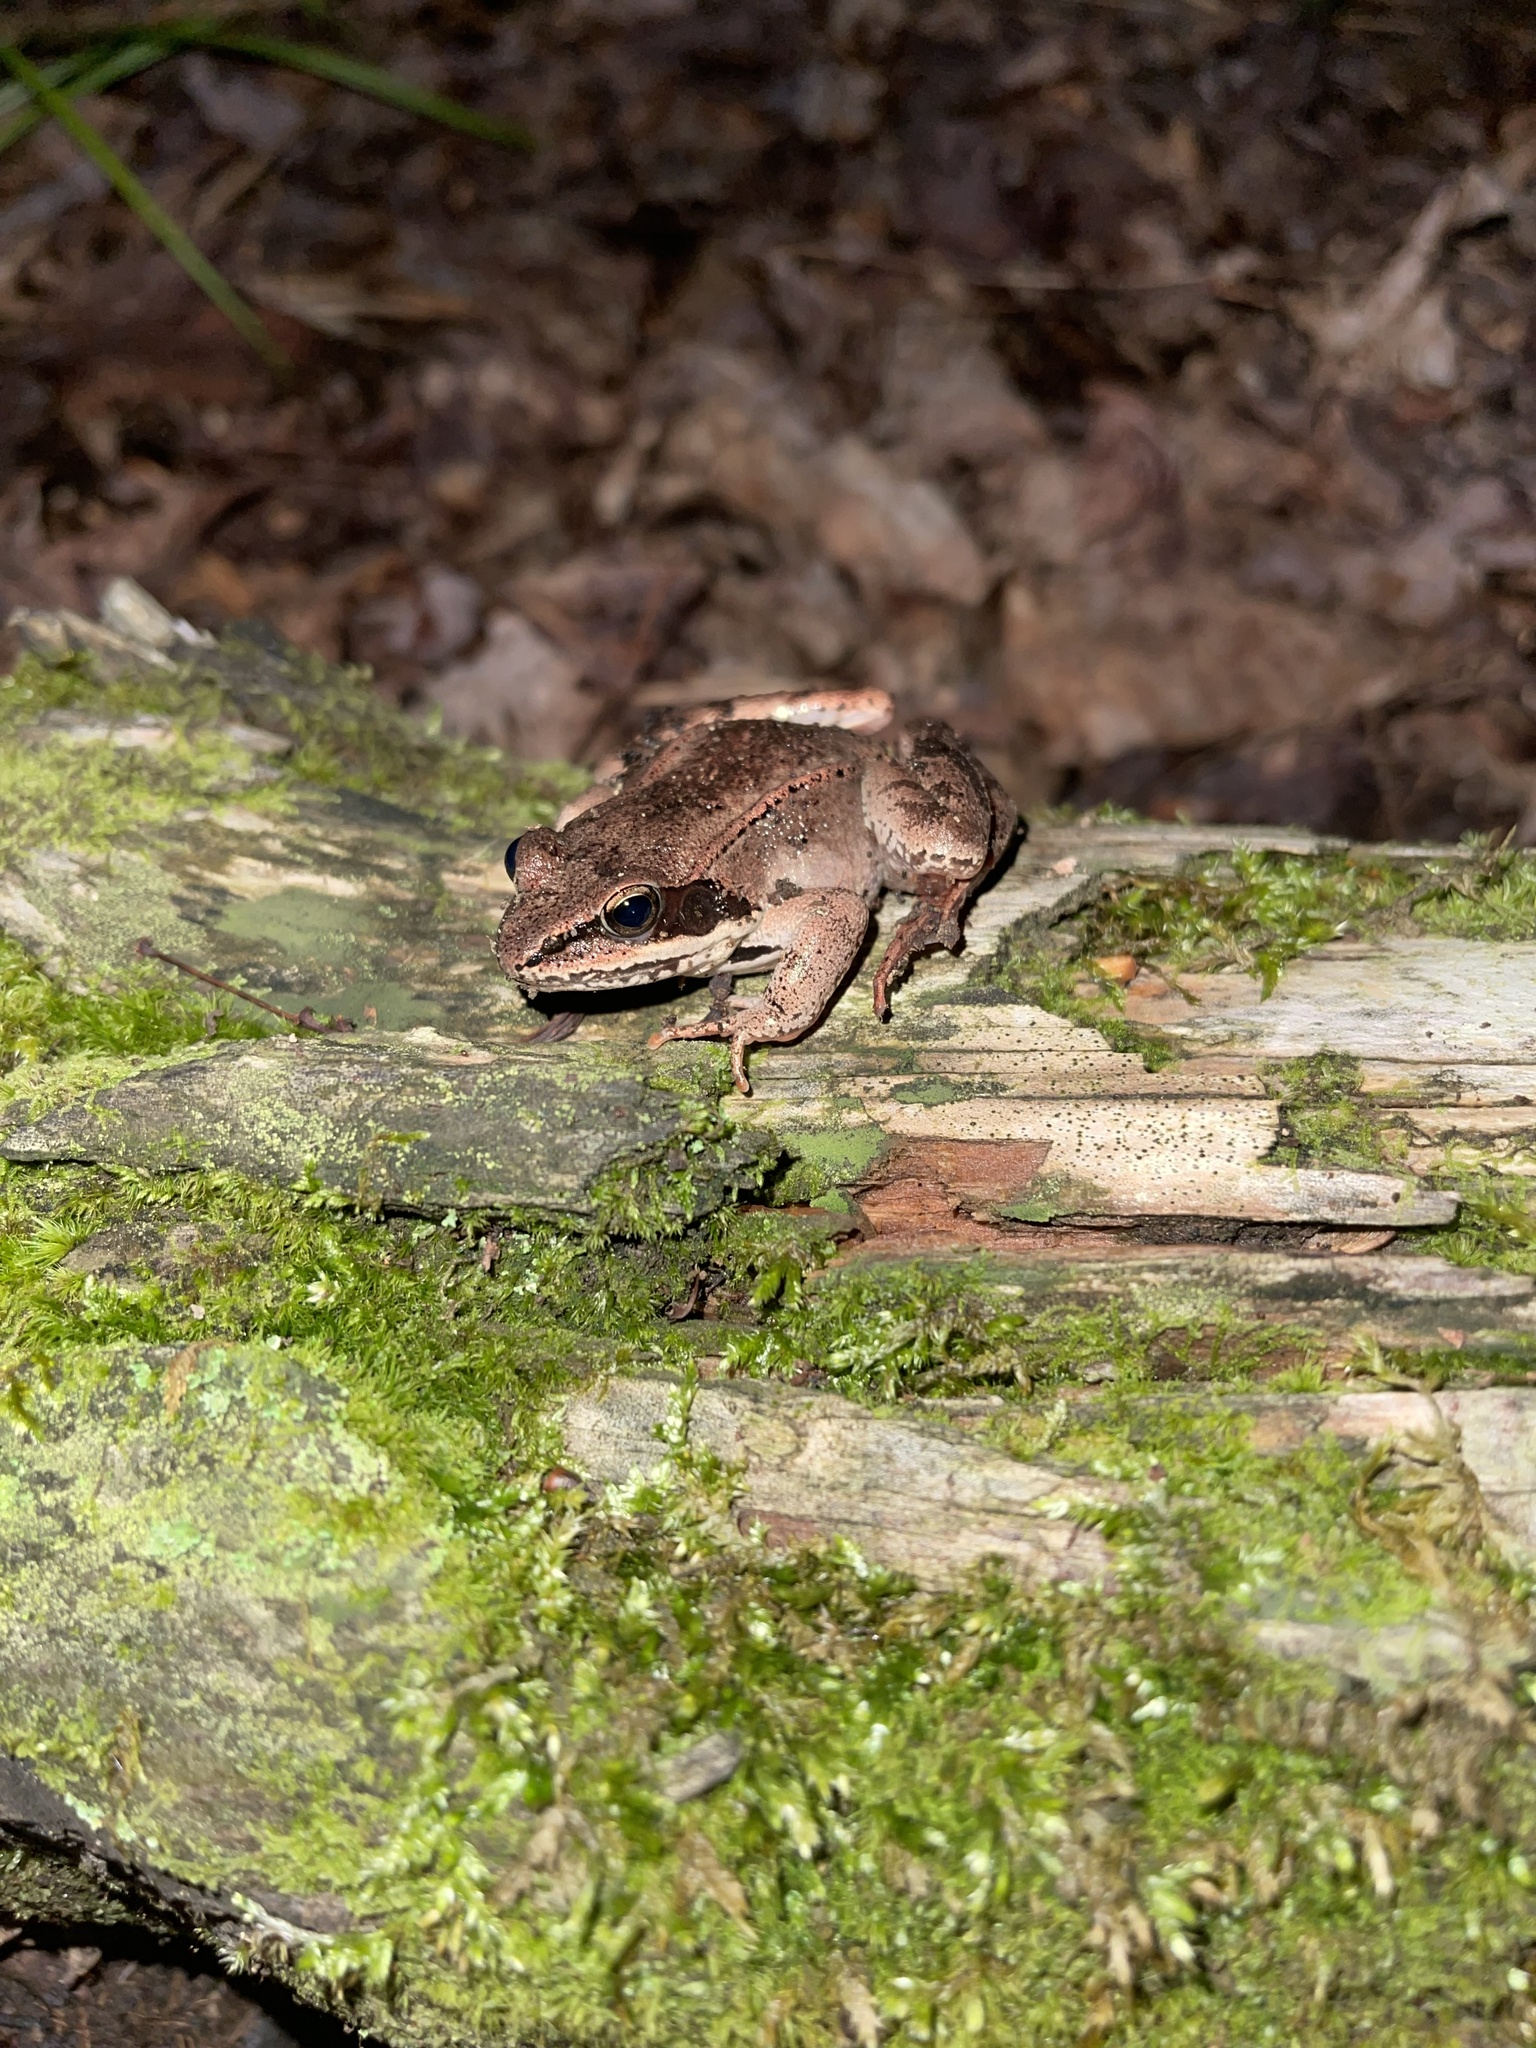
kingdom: Animalia
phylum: Chordata
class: Amphibia
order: Anura
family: Ranidae
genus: Lithobates
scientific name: Lithobates sylvaticus
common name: Wood frog
